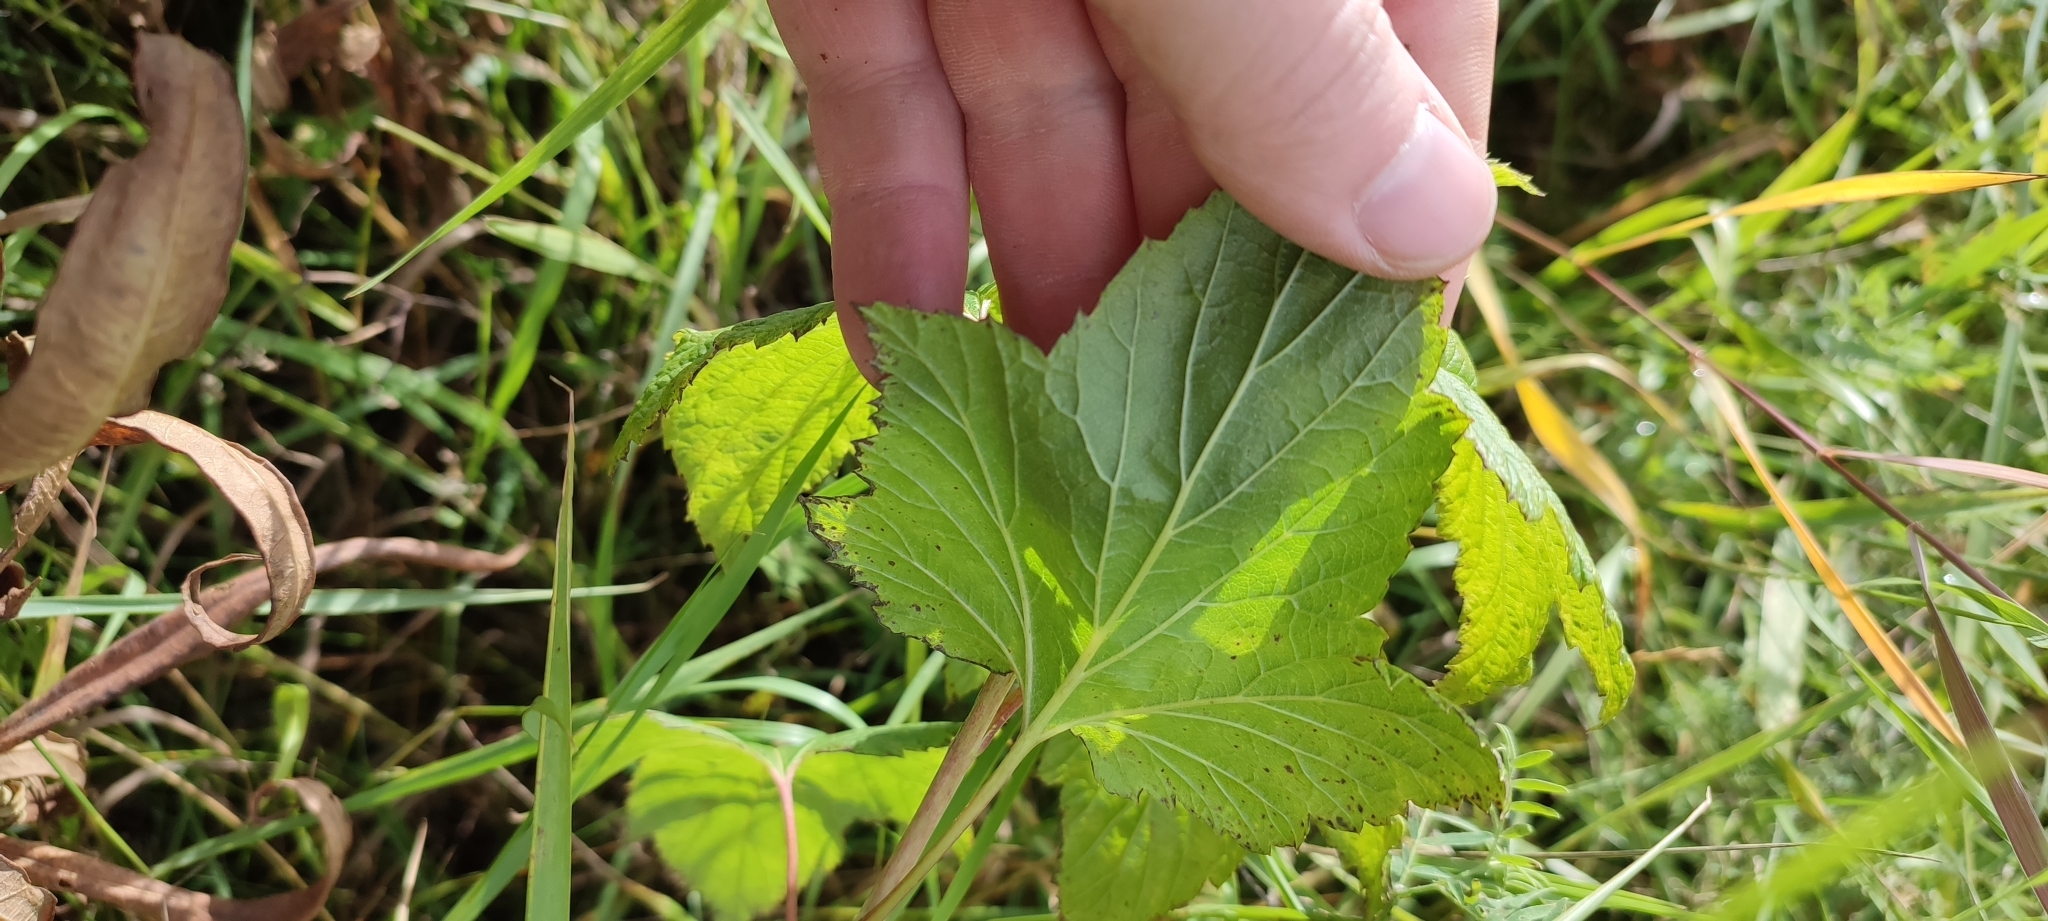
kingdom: Plantae
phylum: Tracheophyta
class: Magnoliopsida
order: Saxifragales
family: Grossulariaceae
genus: Ribes
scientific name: Ribes nigrum
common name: Black currant
